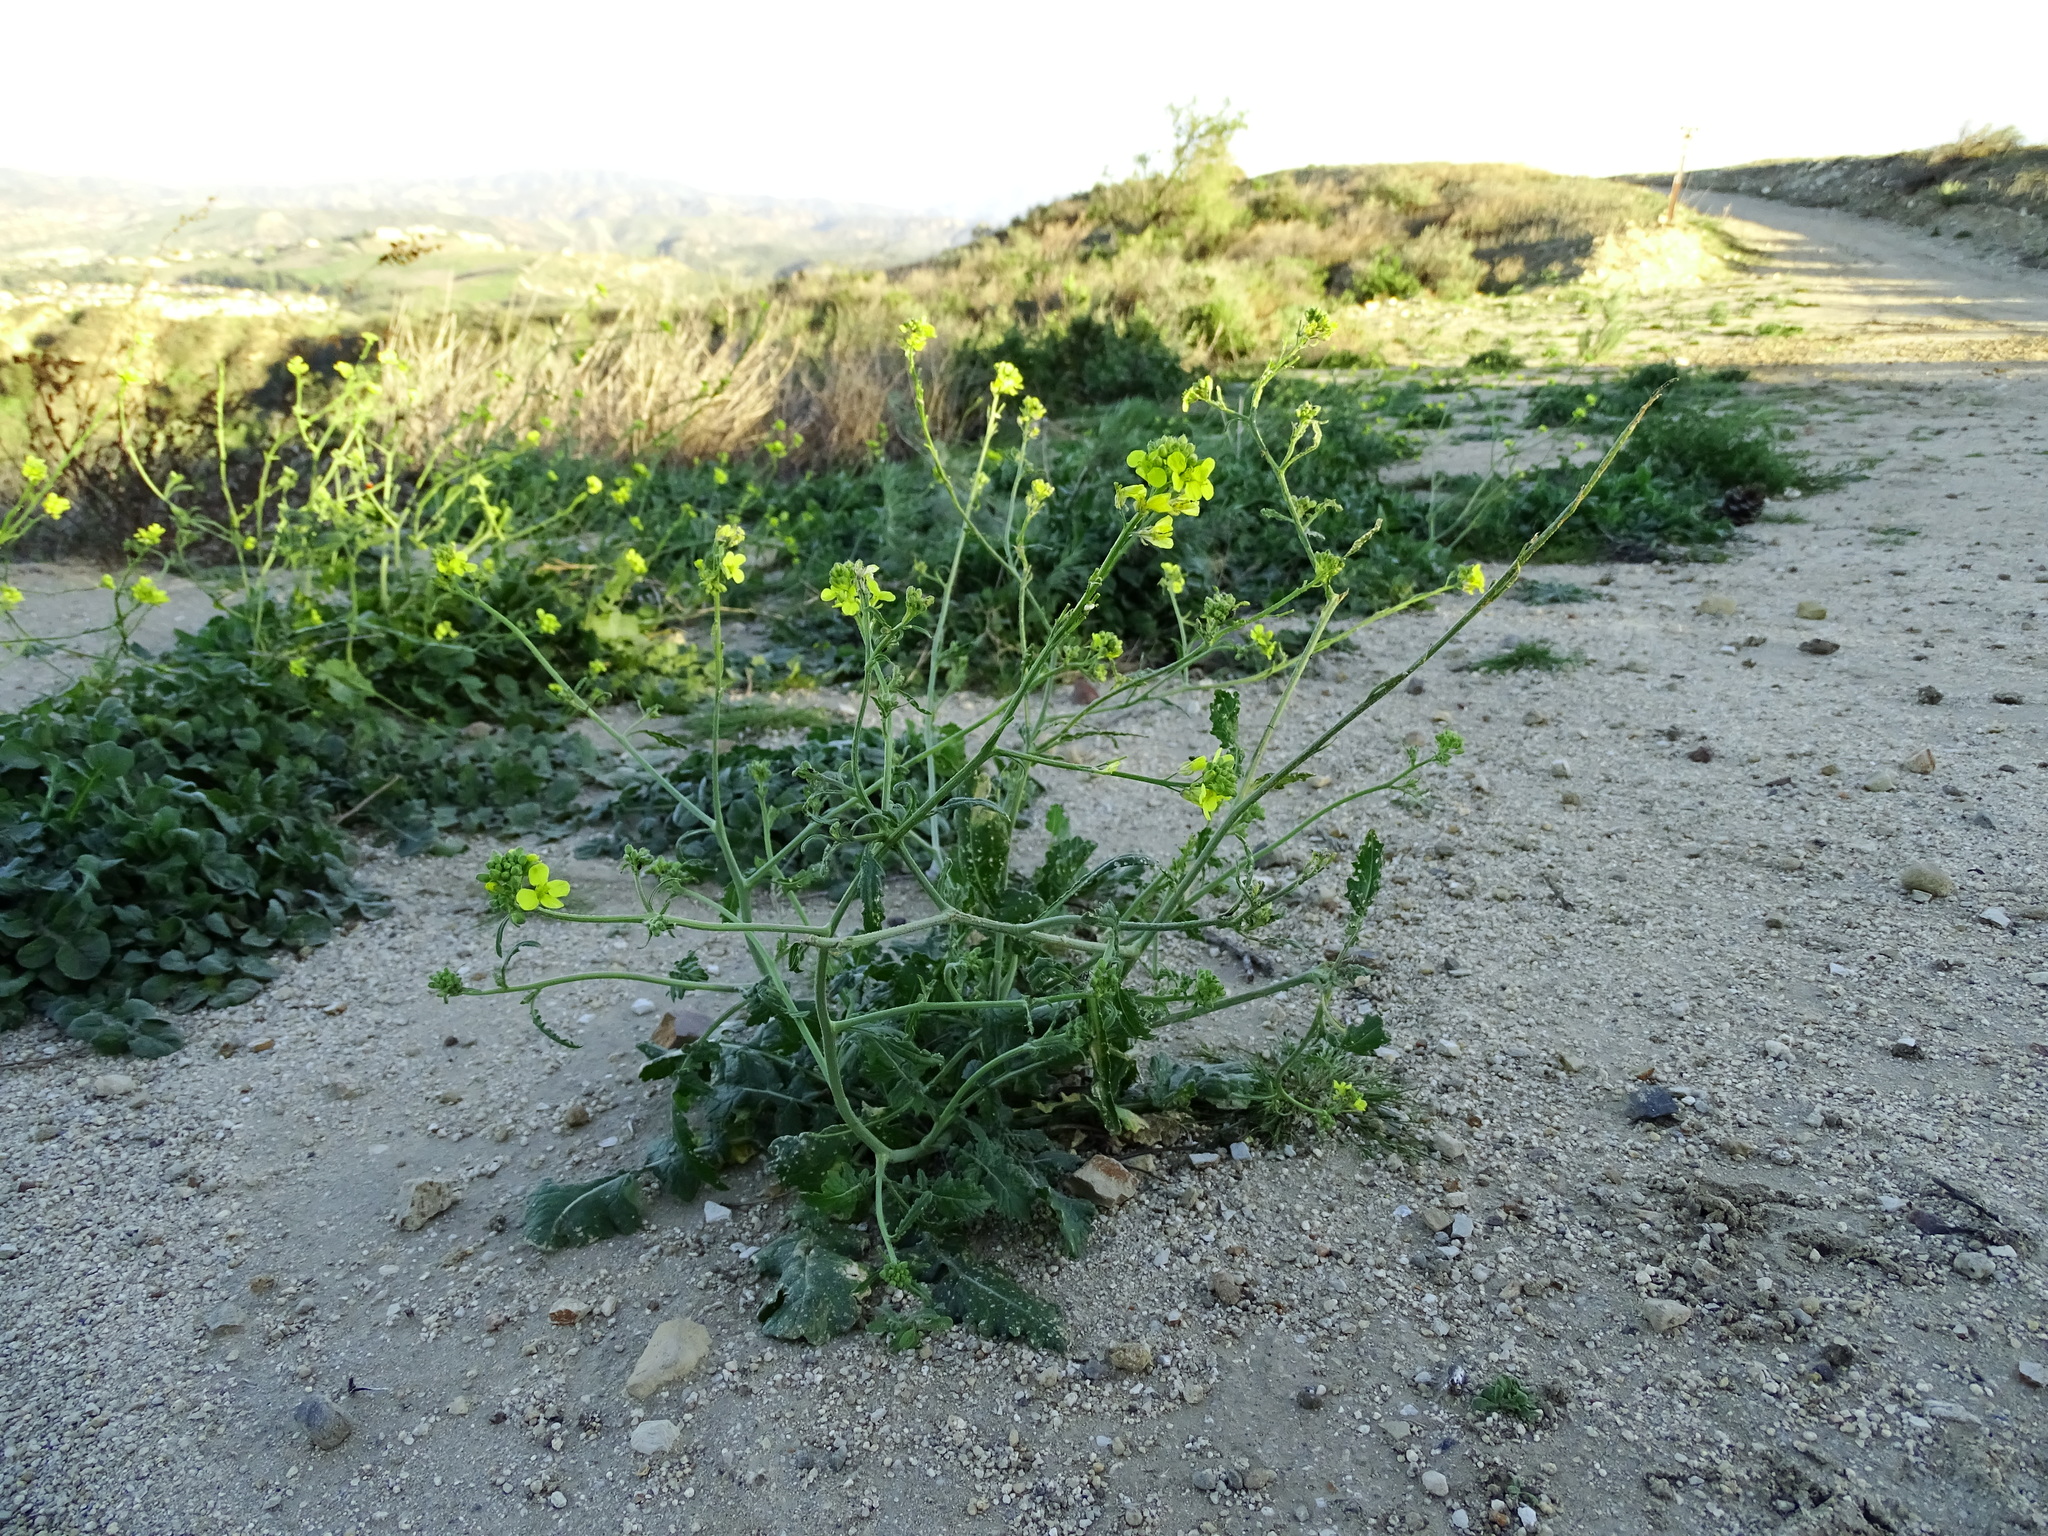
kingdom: Plantae
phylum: Tracheophyta
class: Magnoliopsida
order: Brassicales
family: Brassicaceae
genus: Hirschfeldia
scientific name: Hirschfeldia incana
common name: Hoary mustard
